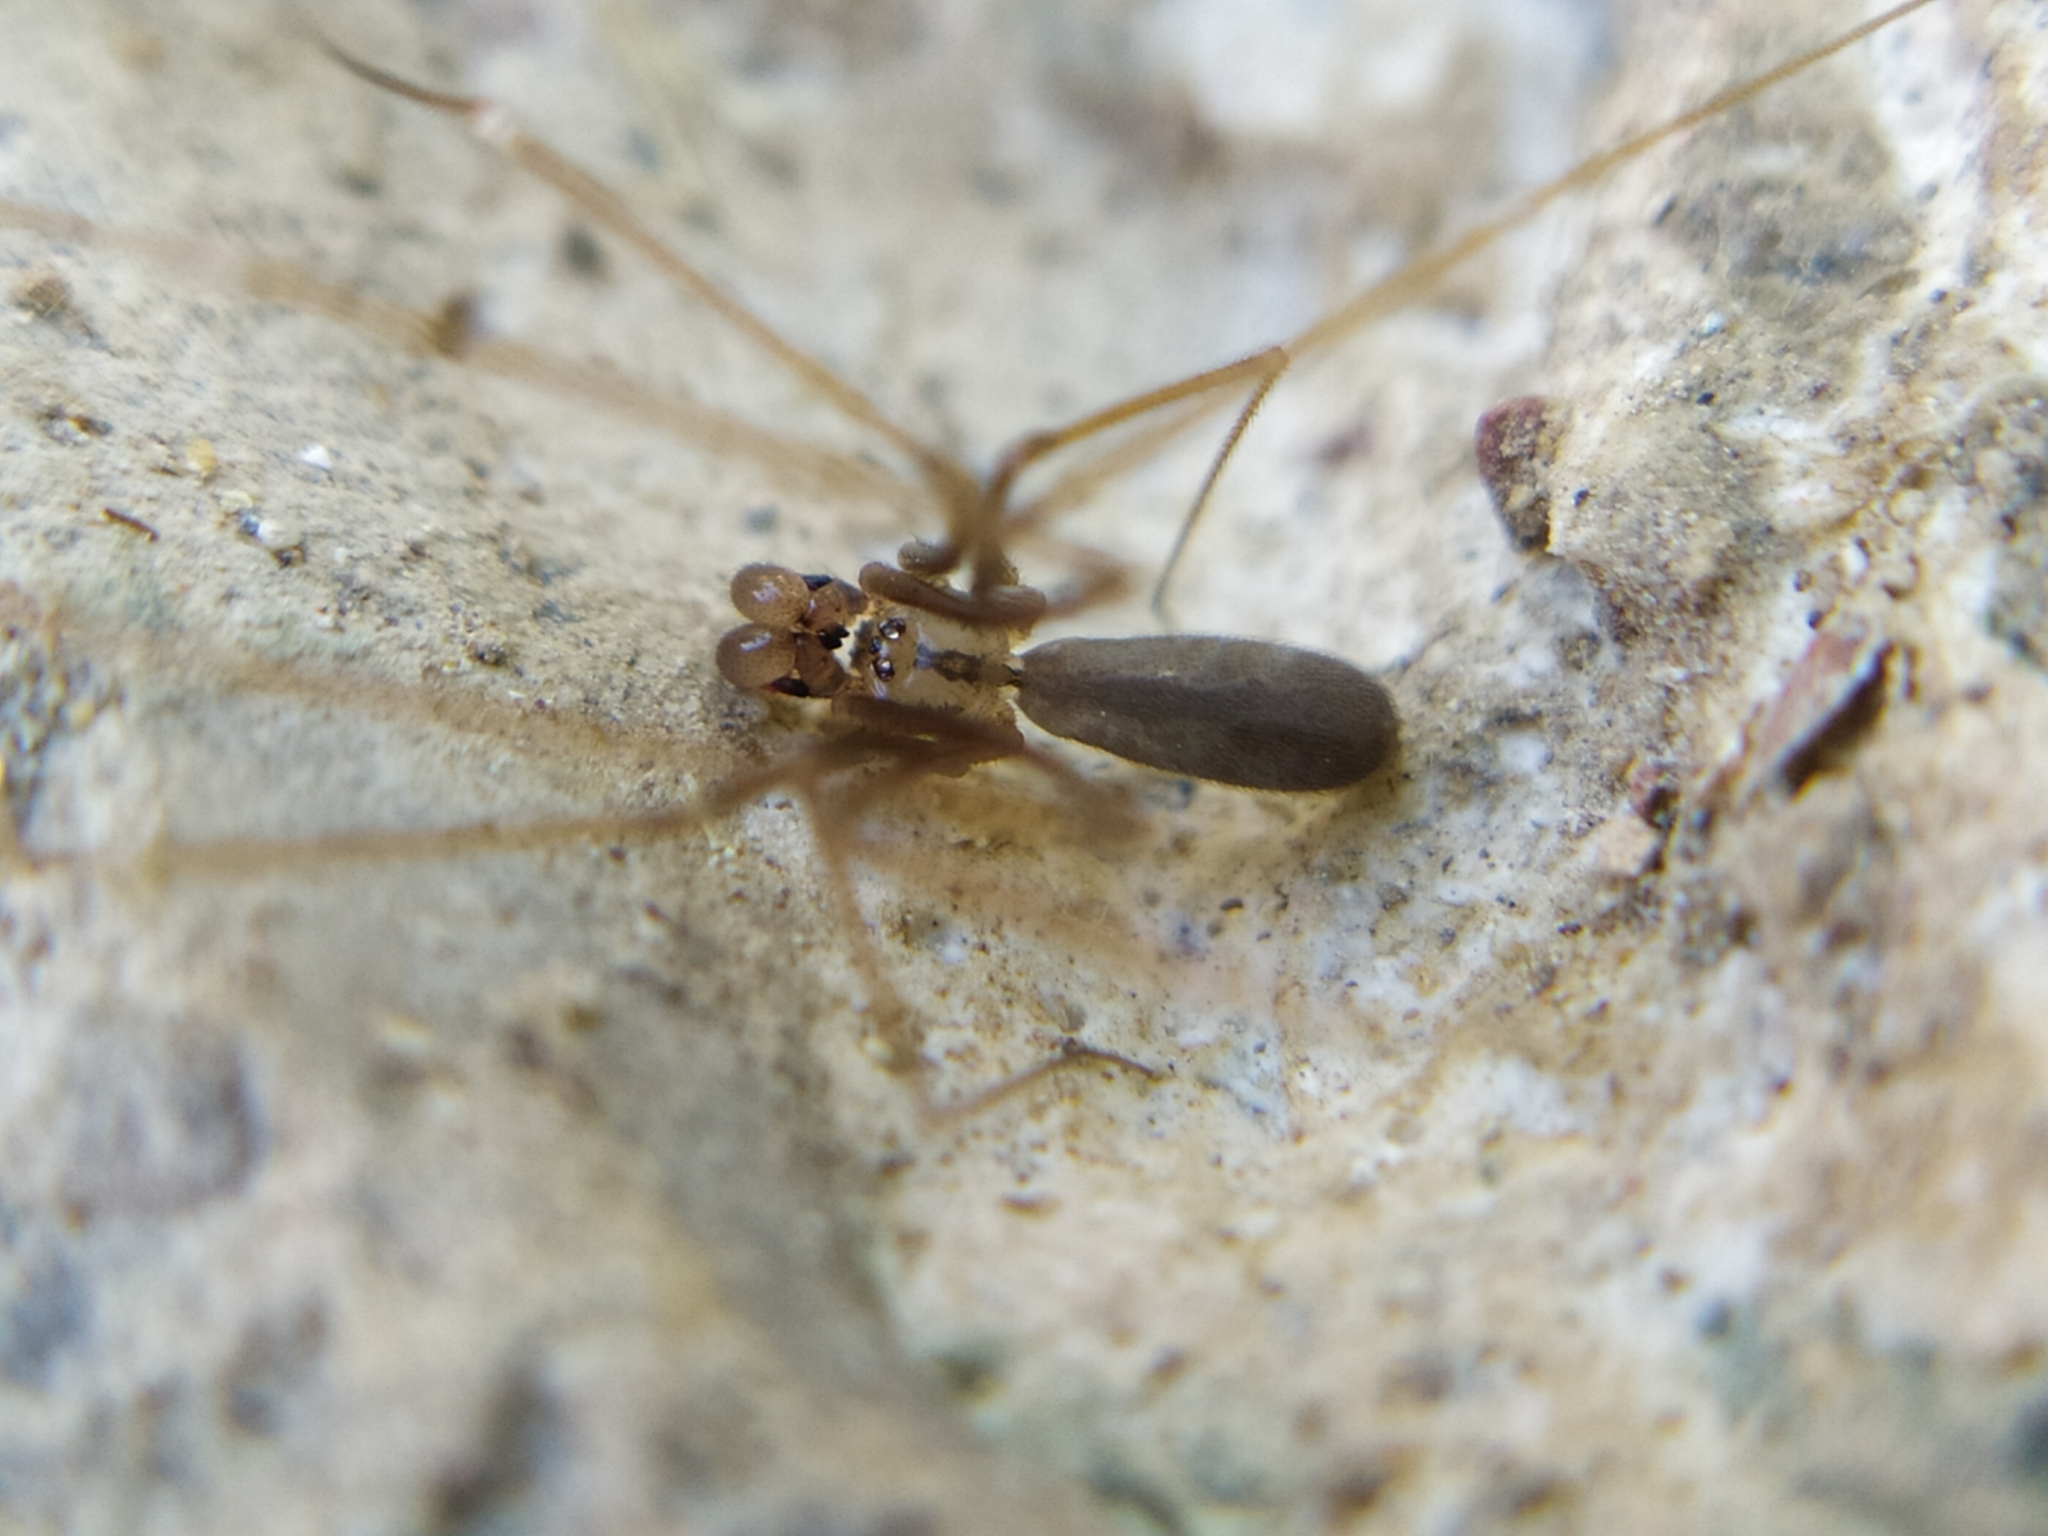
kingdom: Animalia
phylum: Arthropoda
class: Arachnida
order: Araneae
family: Pholcidae
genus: Pholcus
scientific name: Pholcus opilionoides
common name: Daddylongleg spider
